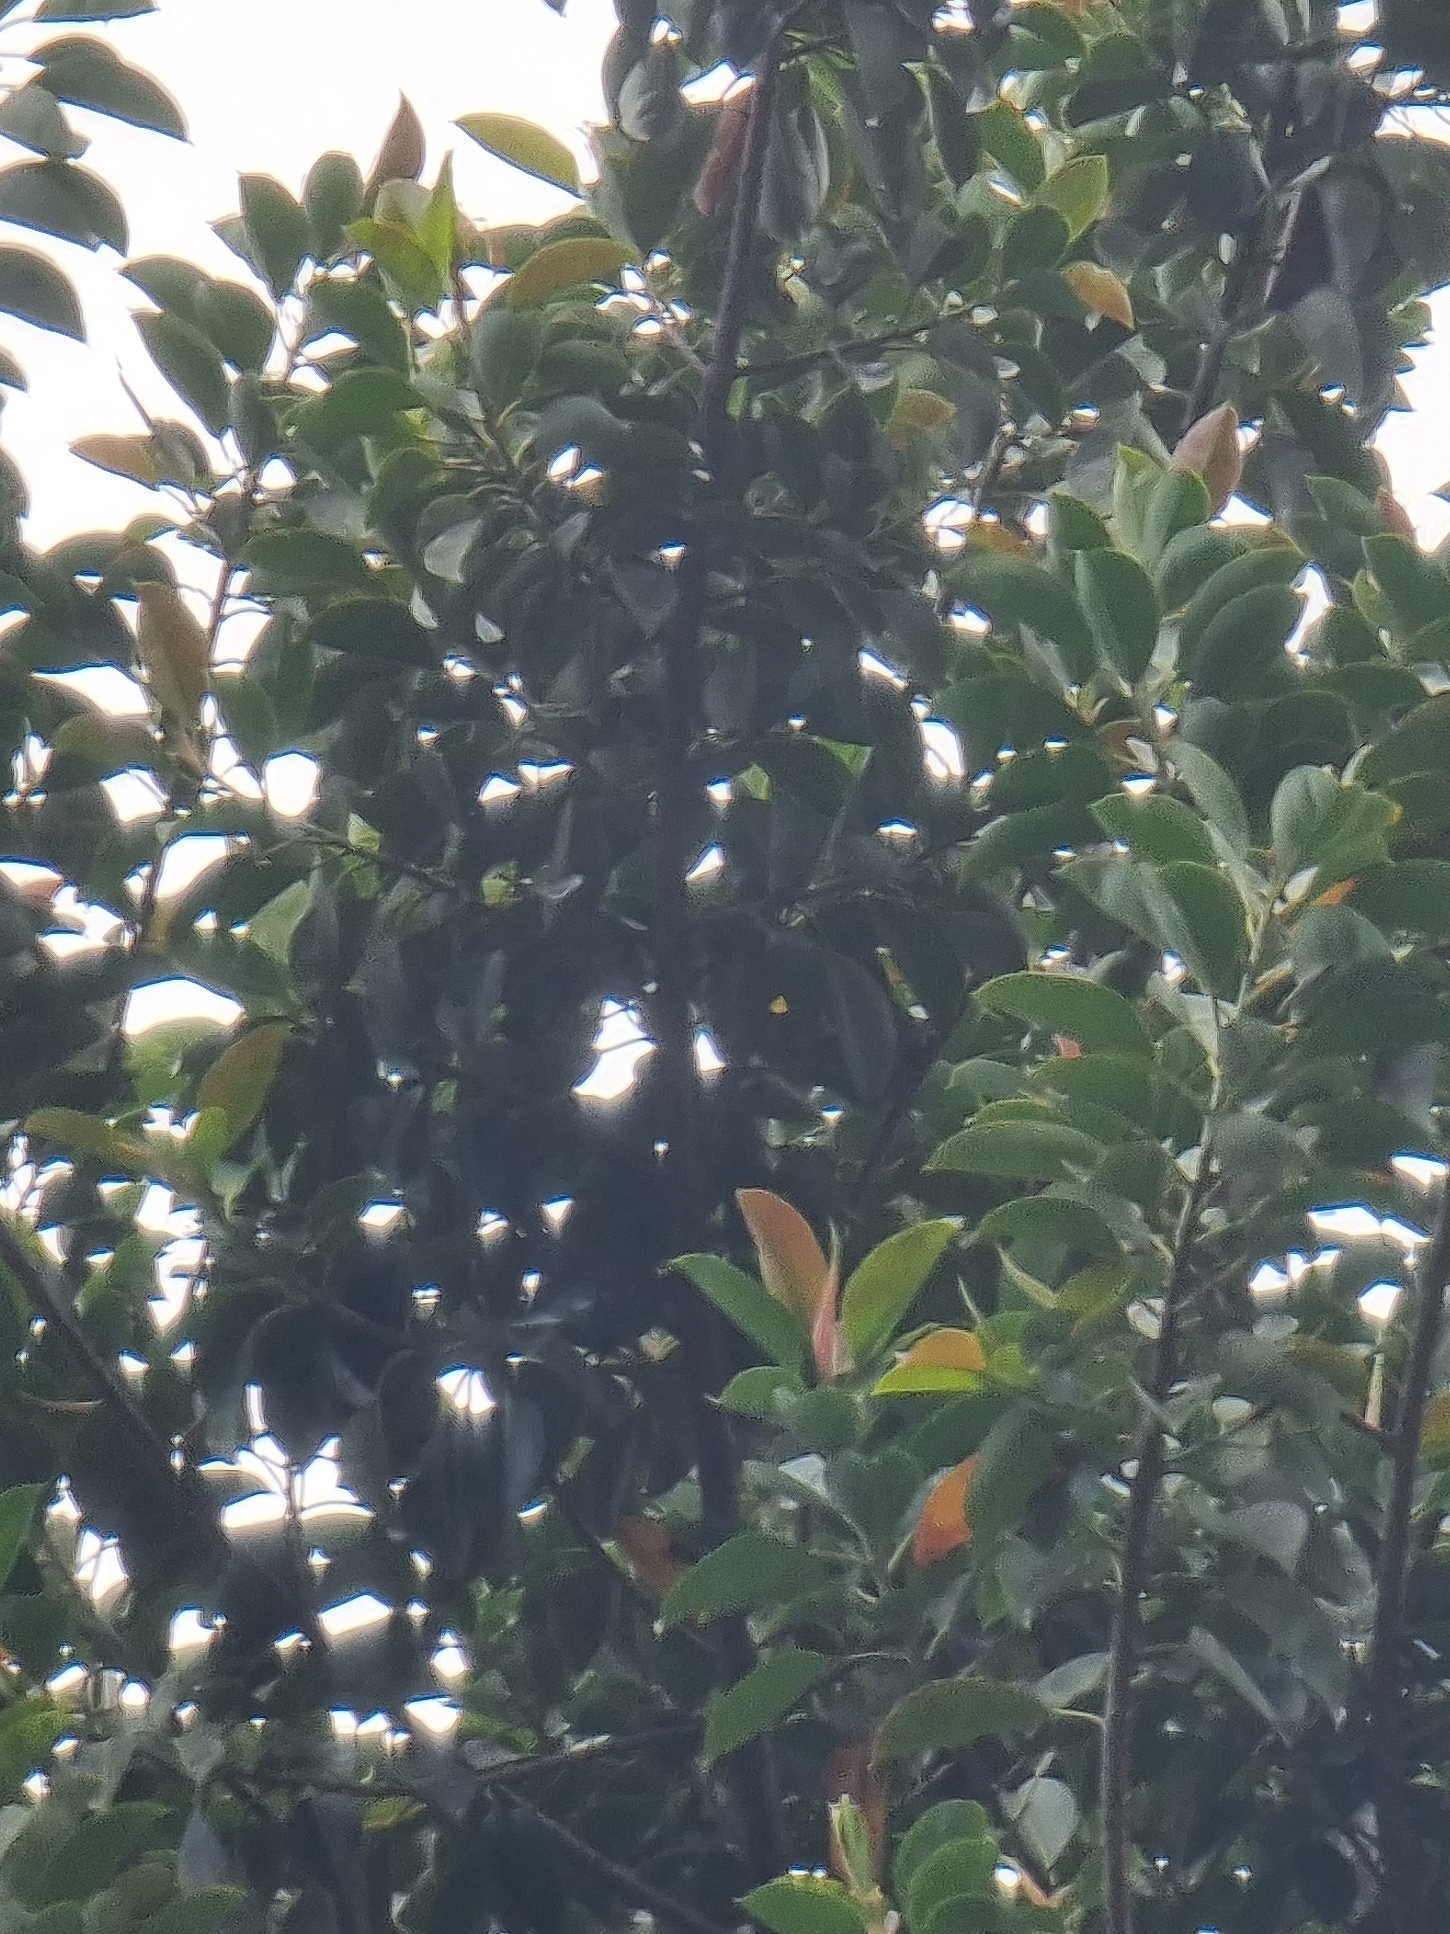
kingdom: Plantae
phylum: Tracheophyta
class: Magnoliopsida
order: Rosales
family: Moraceae
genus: Ficus
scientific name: Ficus elastica
